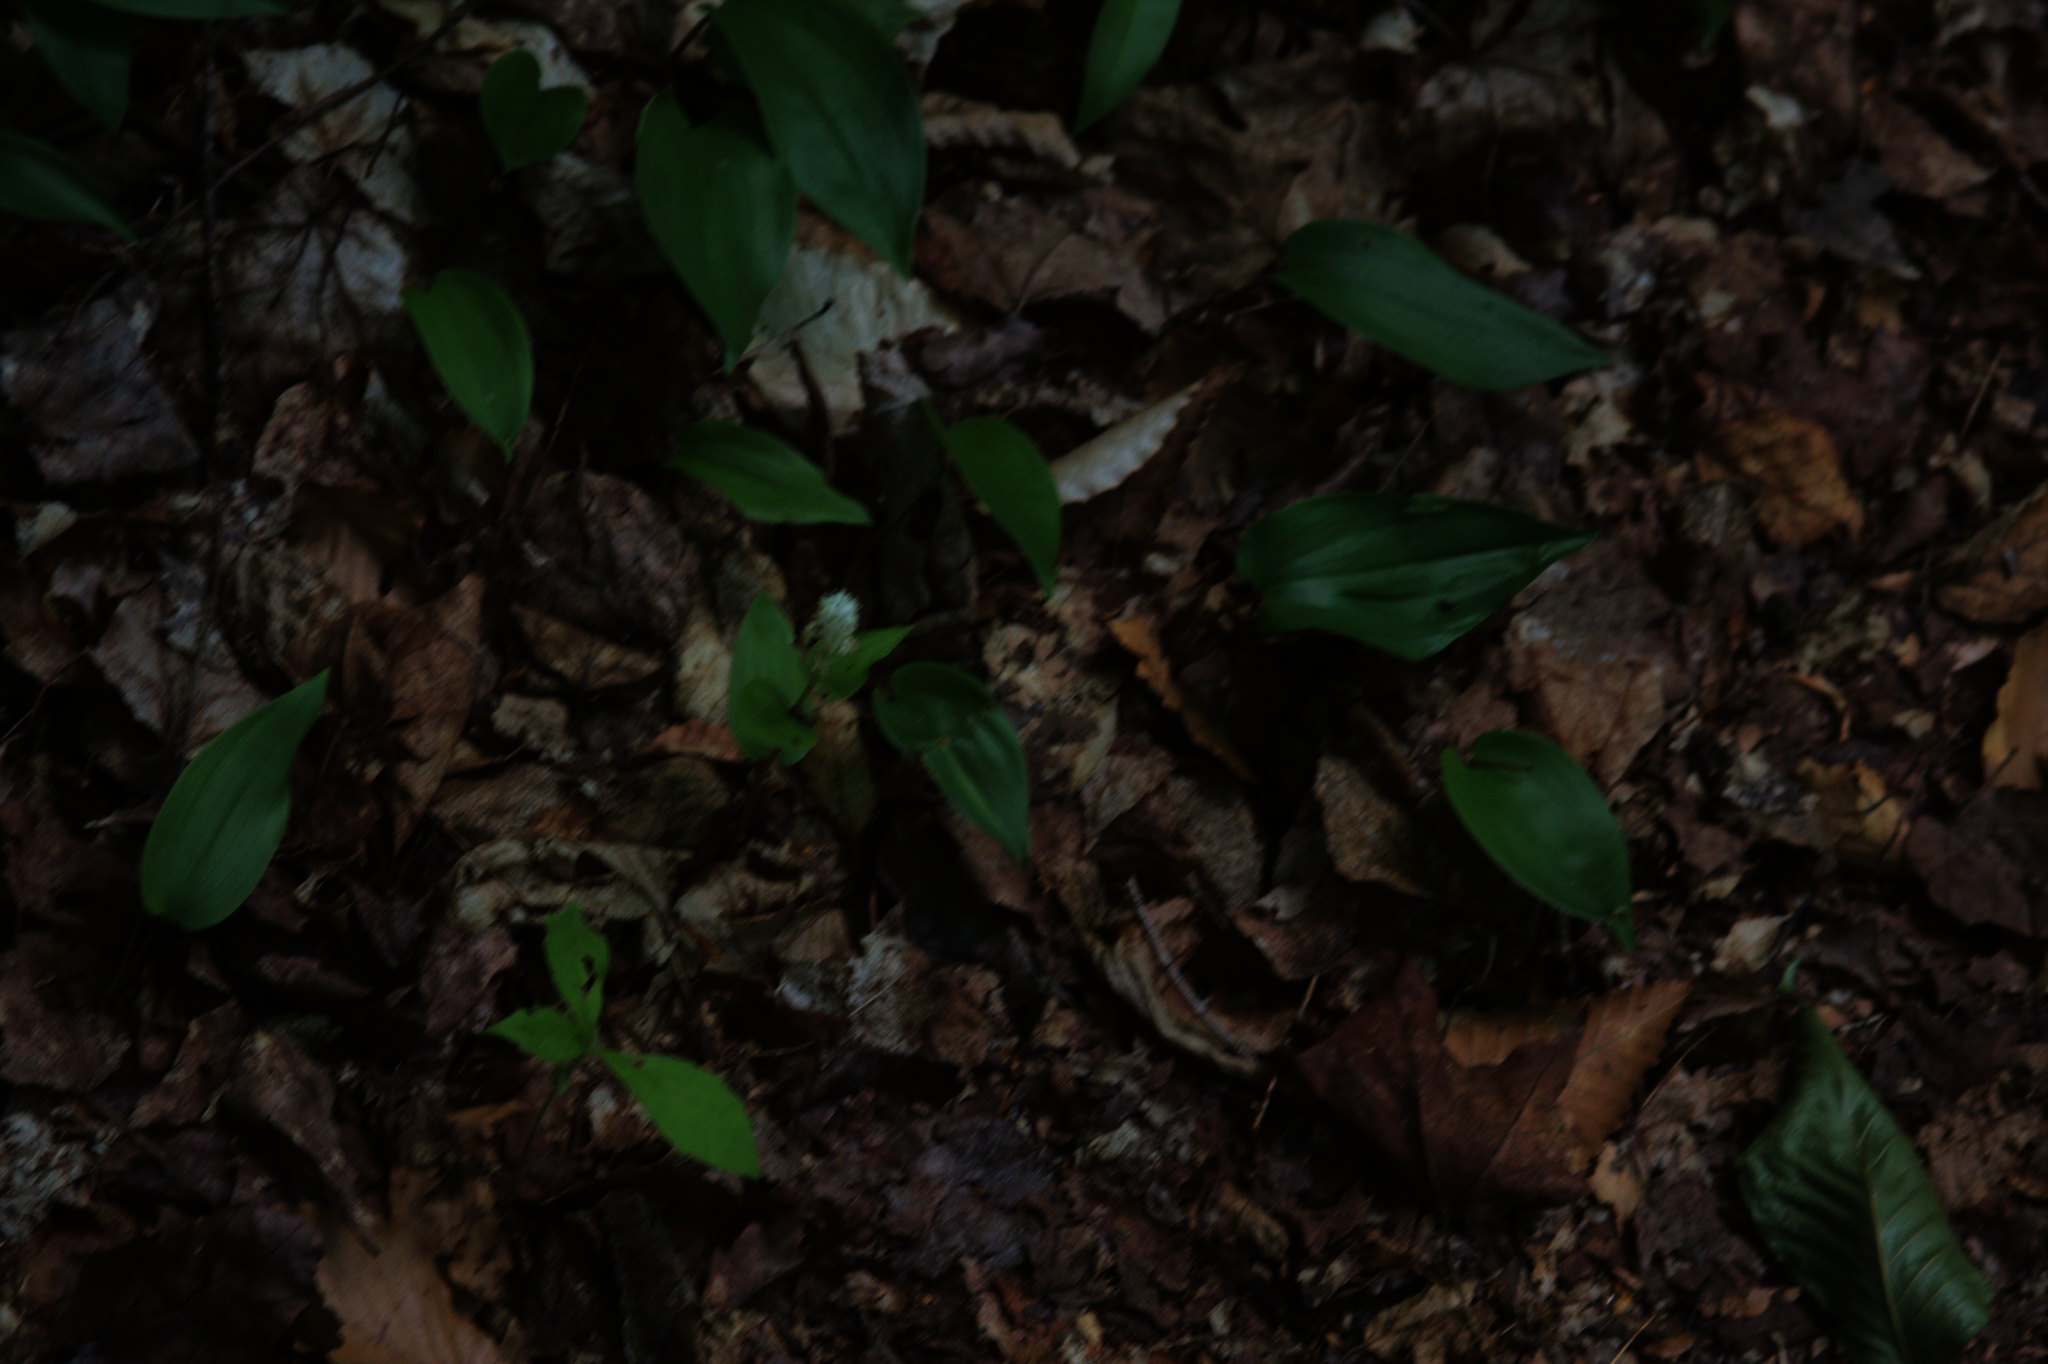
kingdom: Plantae
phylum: Tracheophyta
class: Liliopsida
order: Asparagales
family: Asparagaceae
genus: Maianthemum
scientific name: Maianthemum canadense
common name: False lily-of-the-valley
